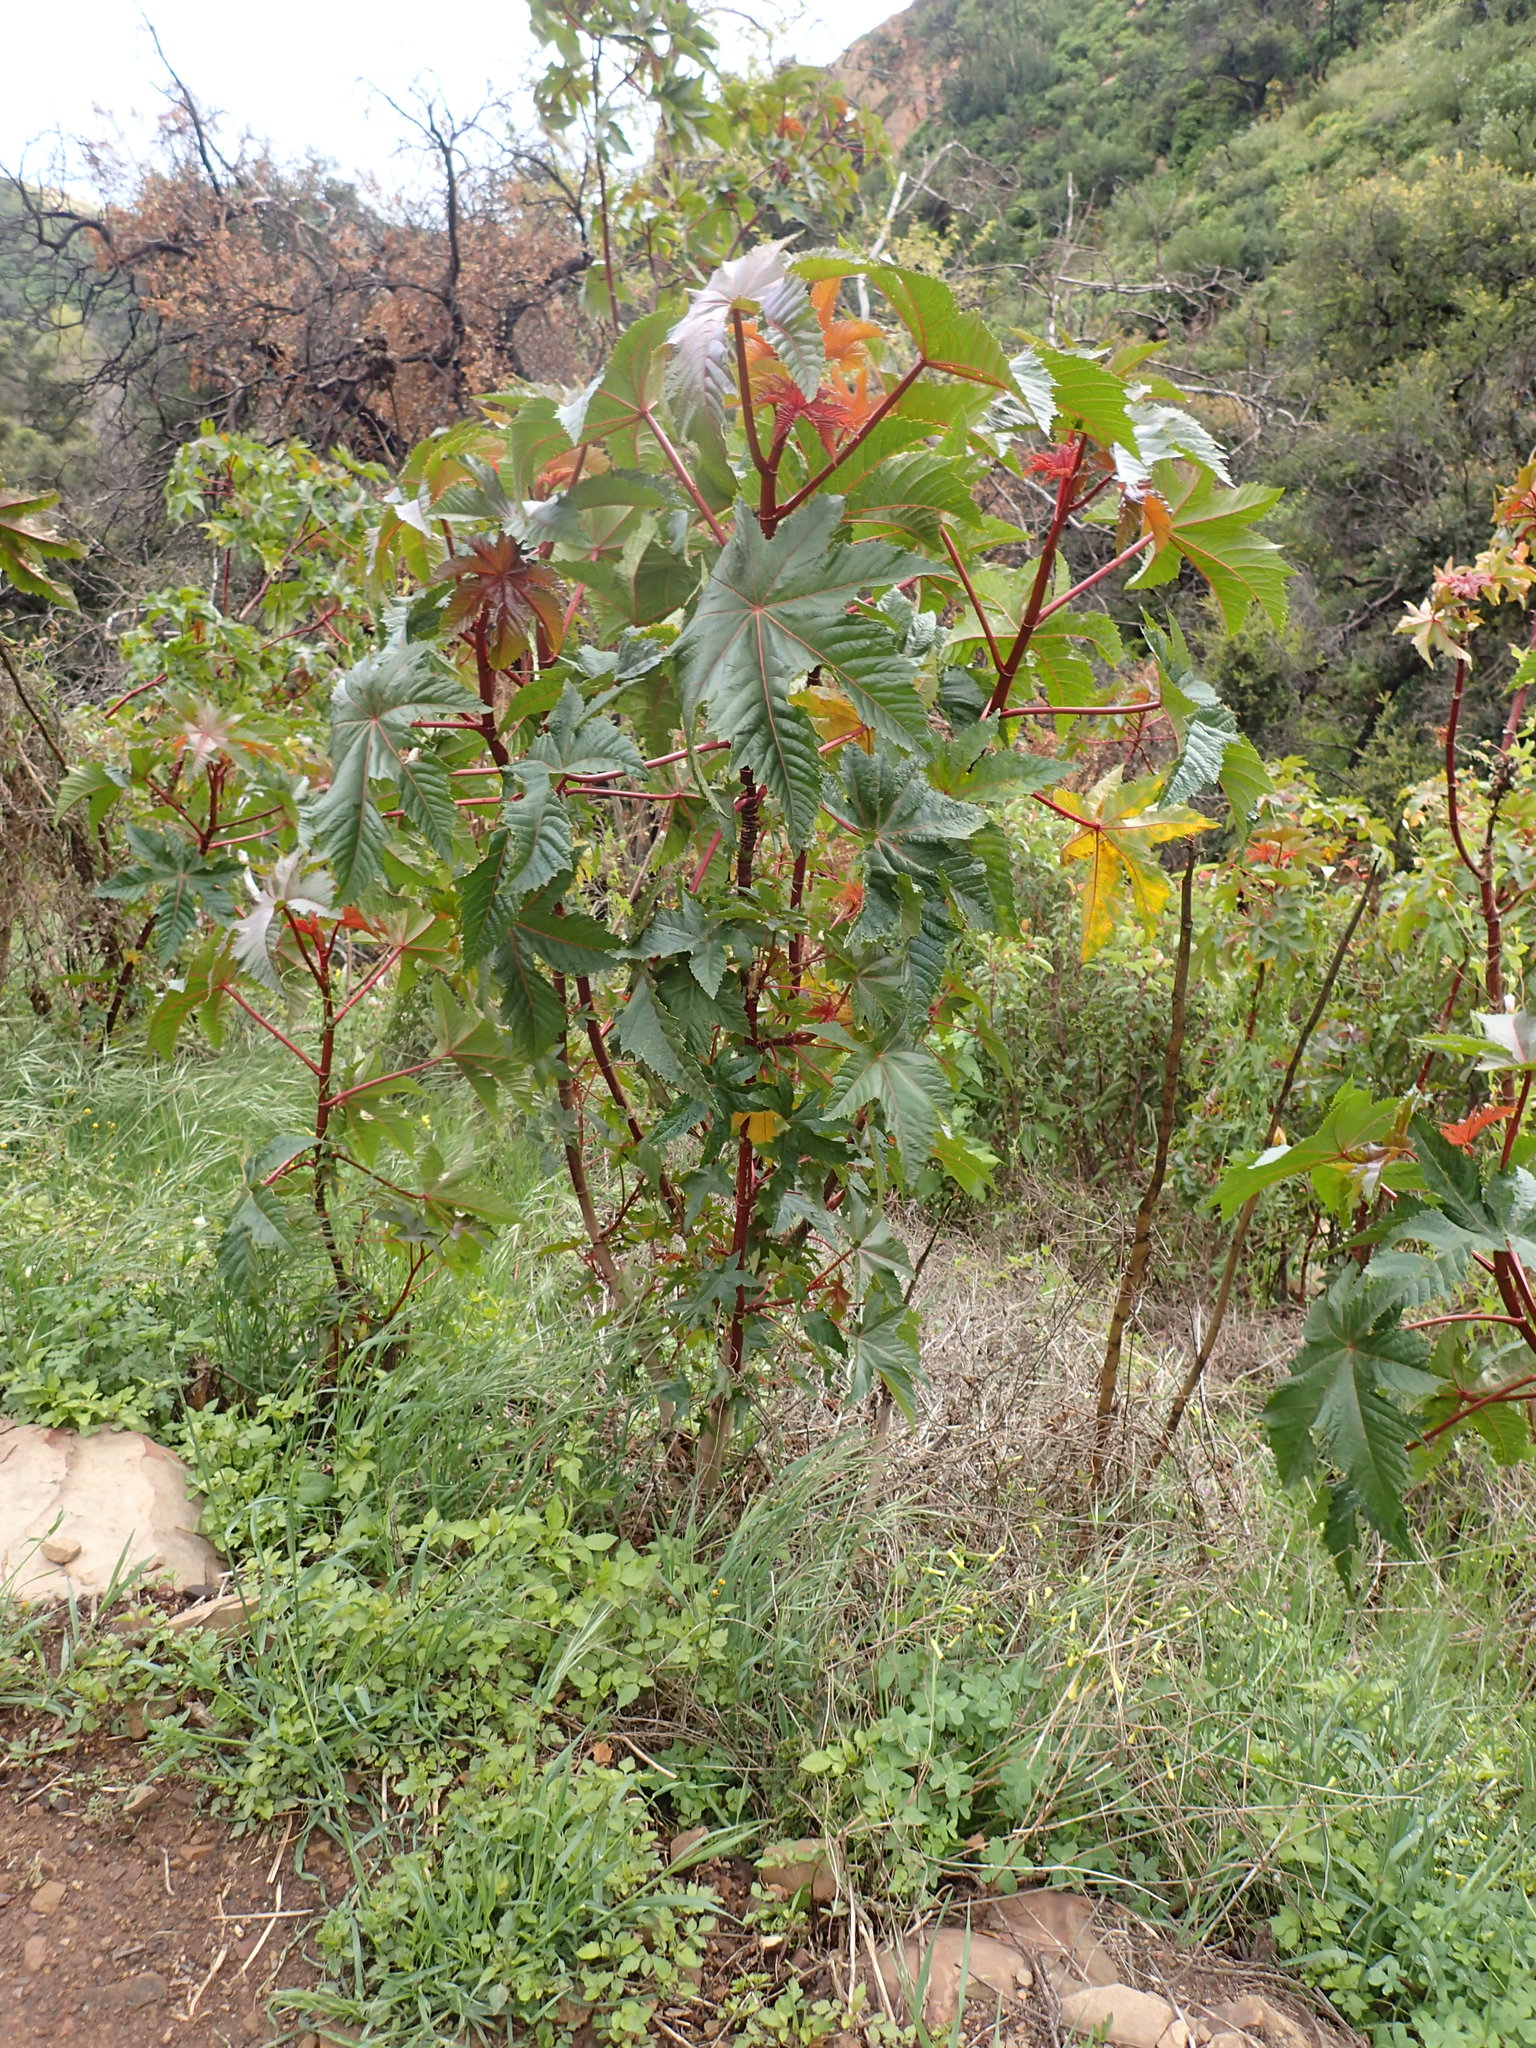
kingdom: Plantae
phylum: Tracheophyta
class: Magnoliopsida
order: Malpighiales
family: Euphorbiaceae
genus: Ricinus
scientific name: Ricinus communis
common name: Castor-oil-plant
